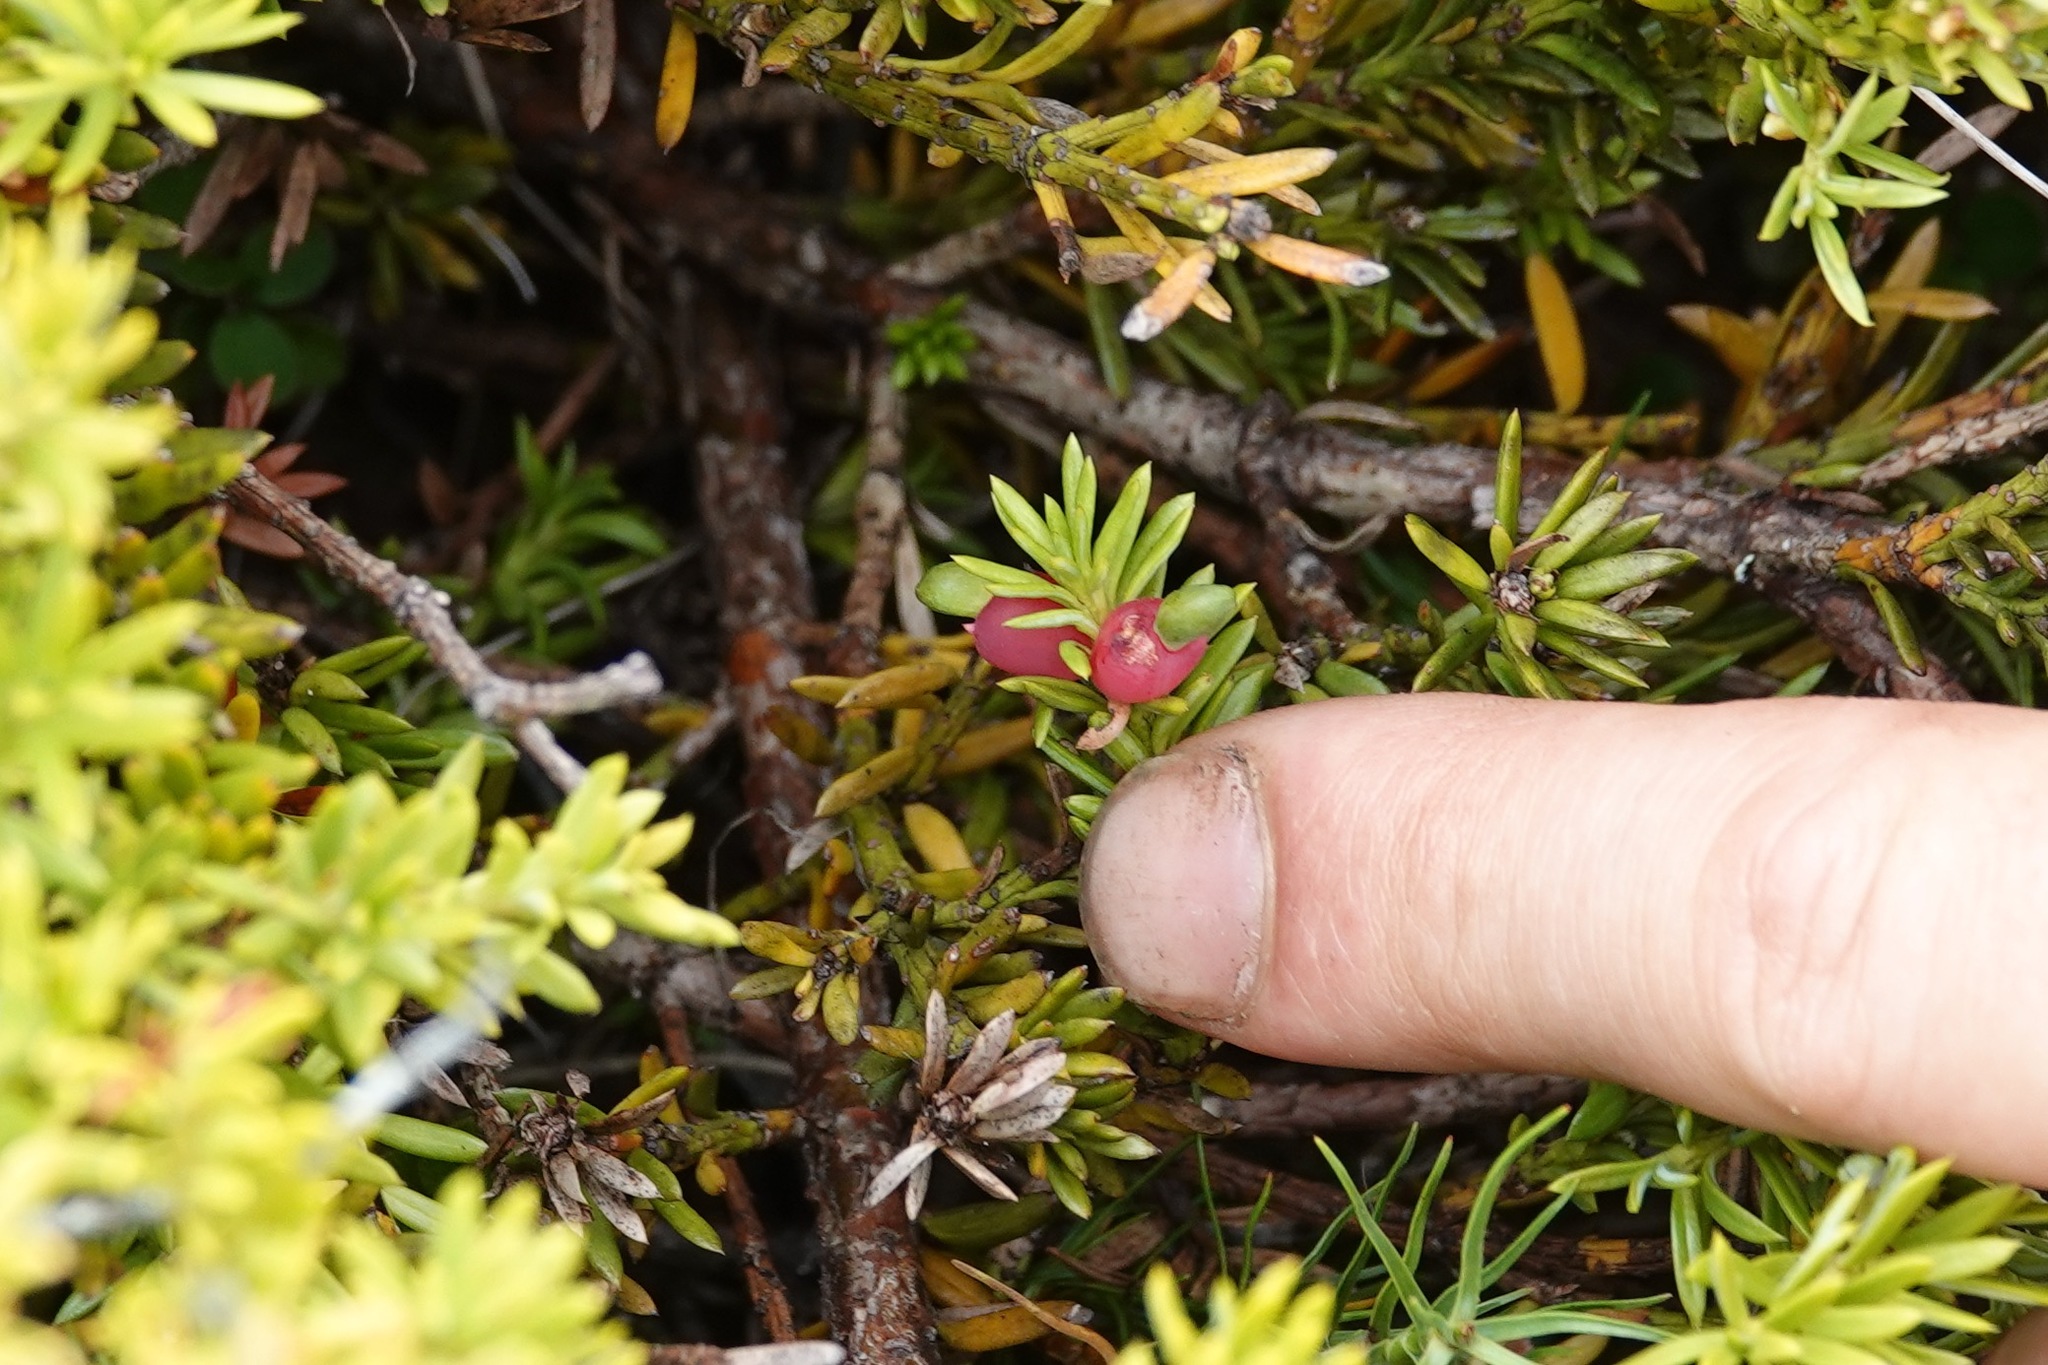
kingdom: Plantae
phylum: Tracheophyta
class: Pinopsida
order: Pinales
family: Podocarpaceae
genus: Podocarpus
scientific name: Podocarpus nivalis
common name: Alpine totara
